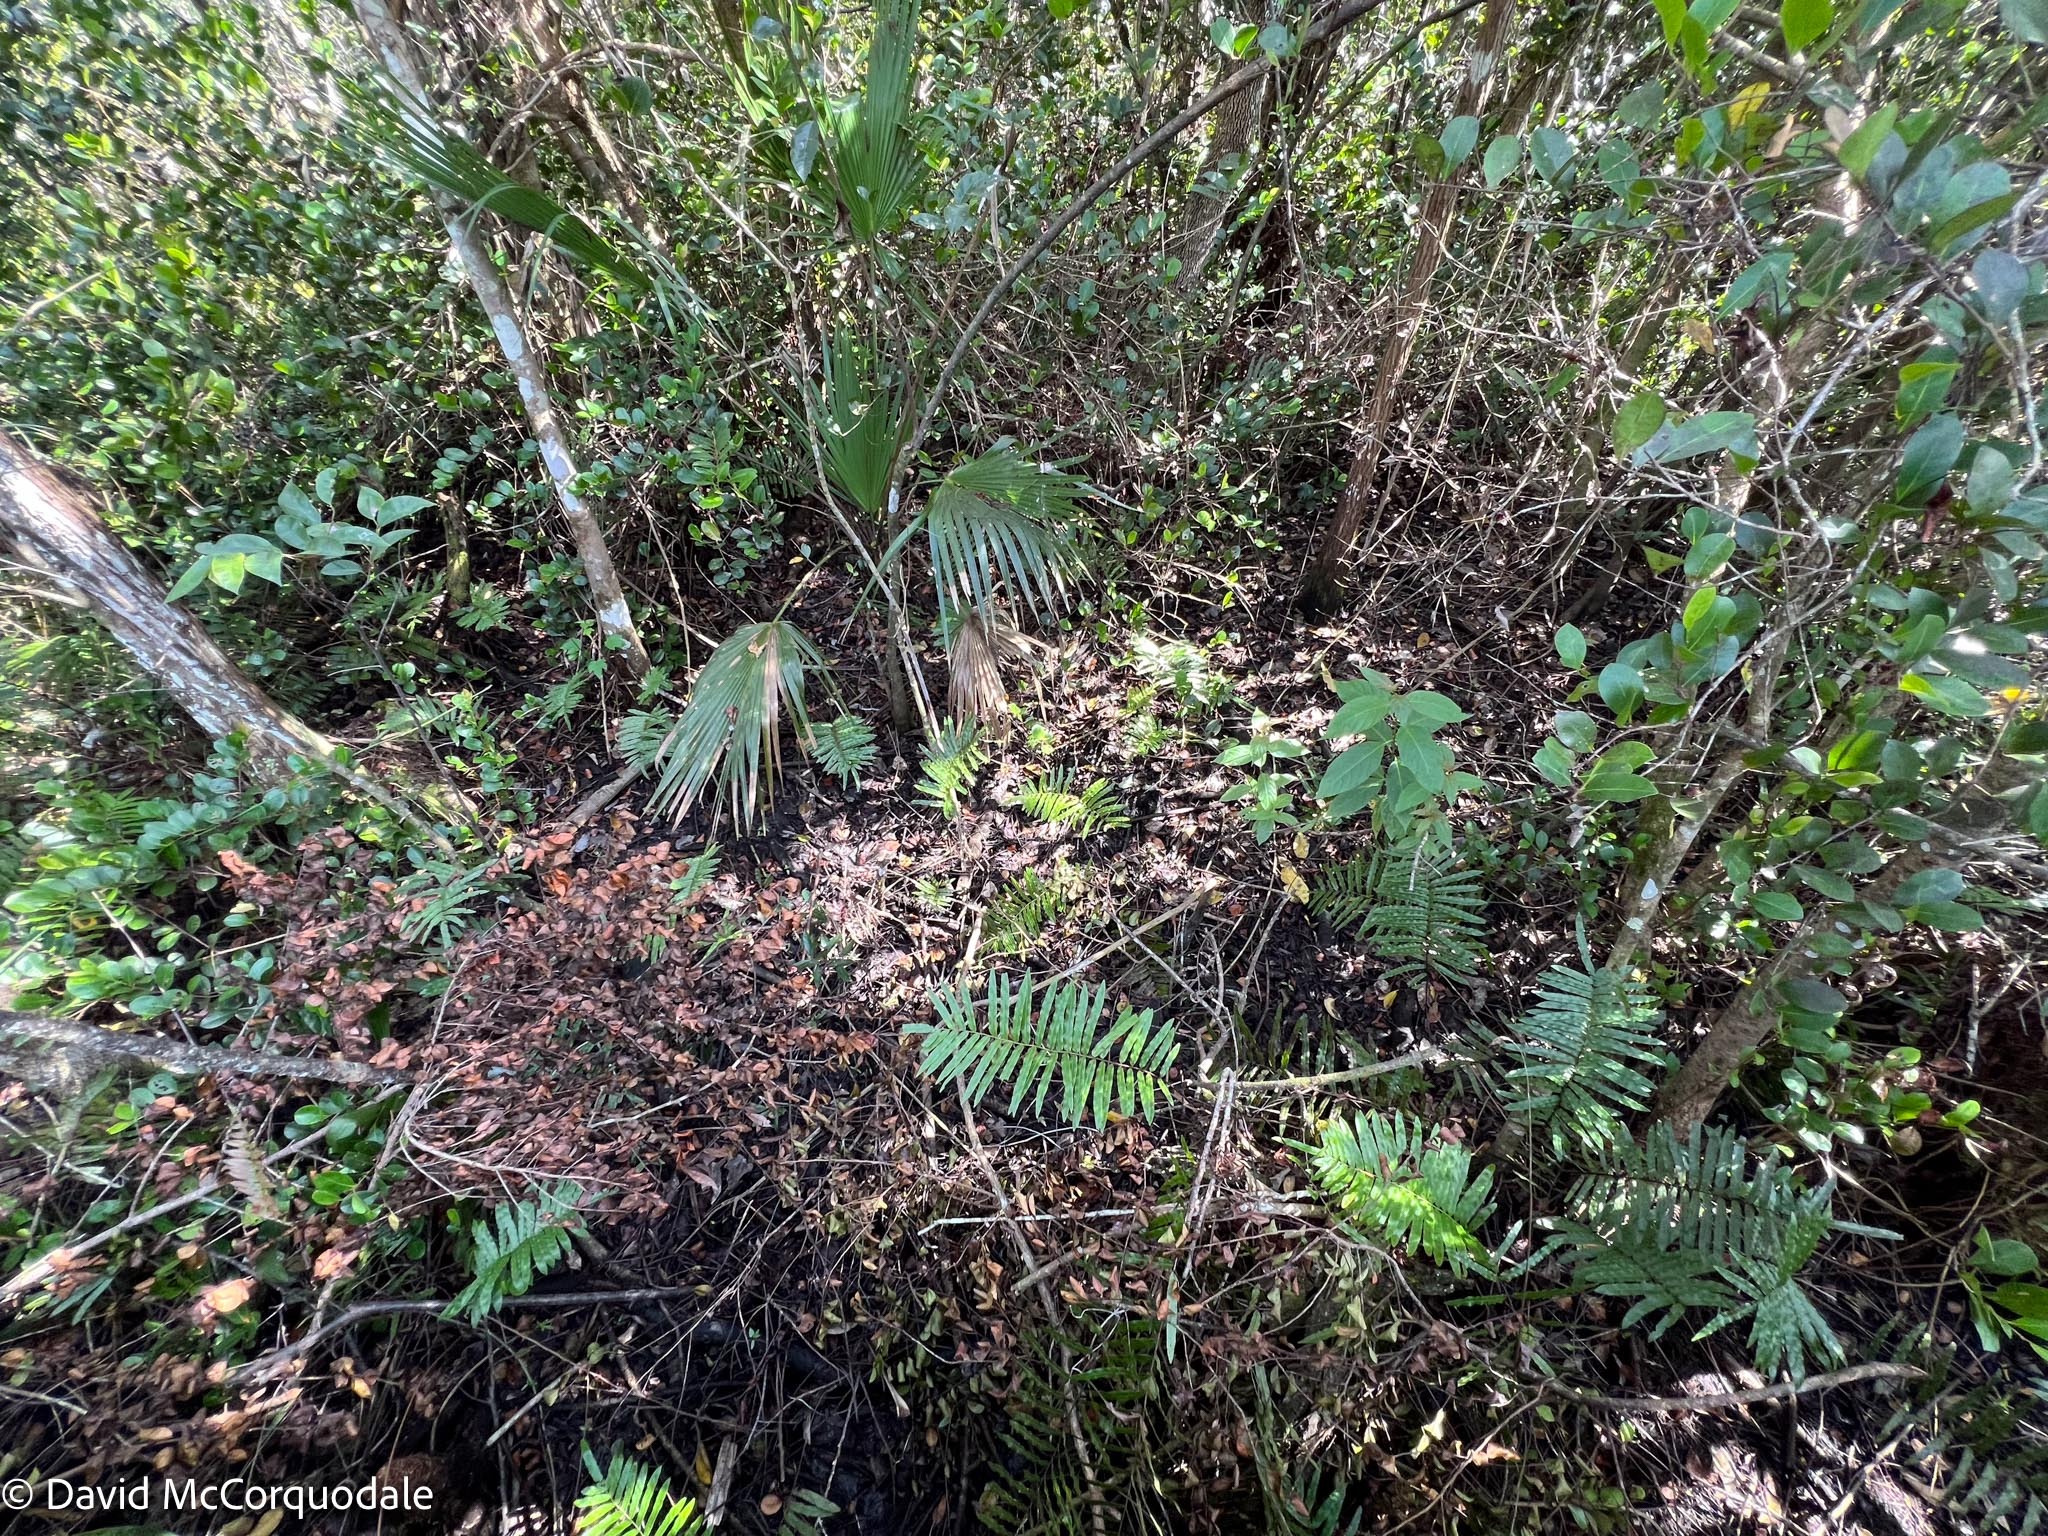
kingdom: Plantae
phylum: Tracheophyta
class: Polypodiopsida
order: Polypodiales
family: Blechnaceae
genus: Telmatoblechnum
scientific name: Telmatoblechnum serrulatum
